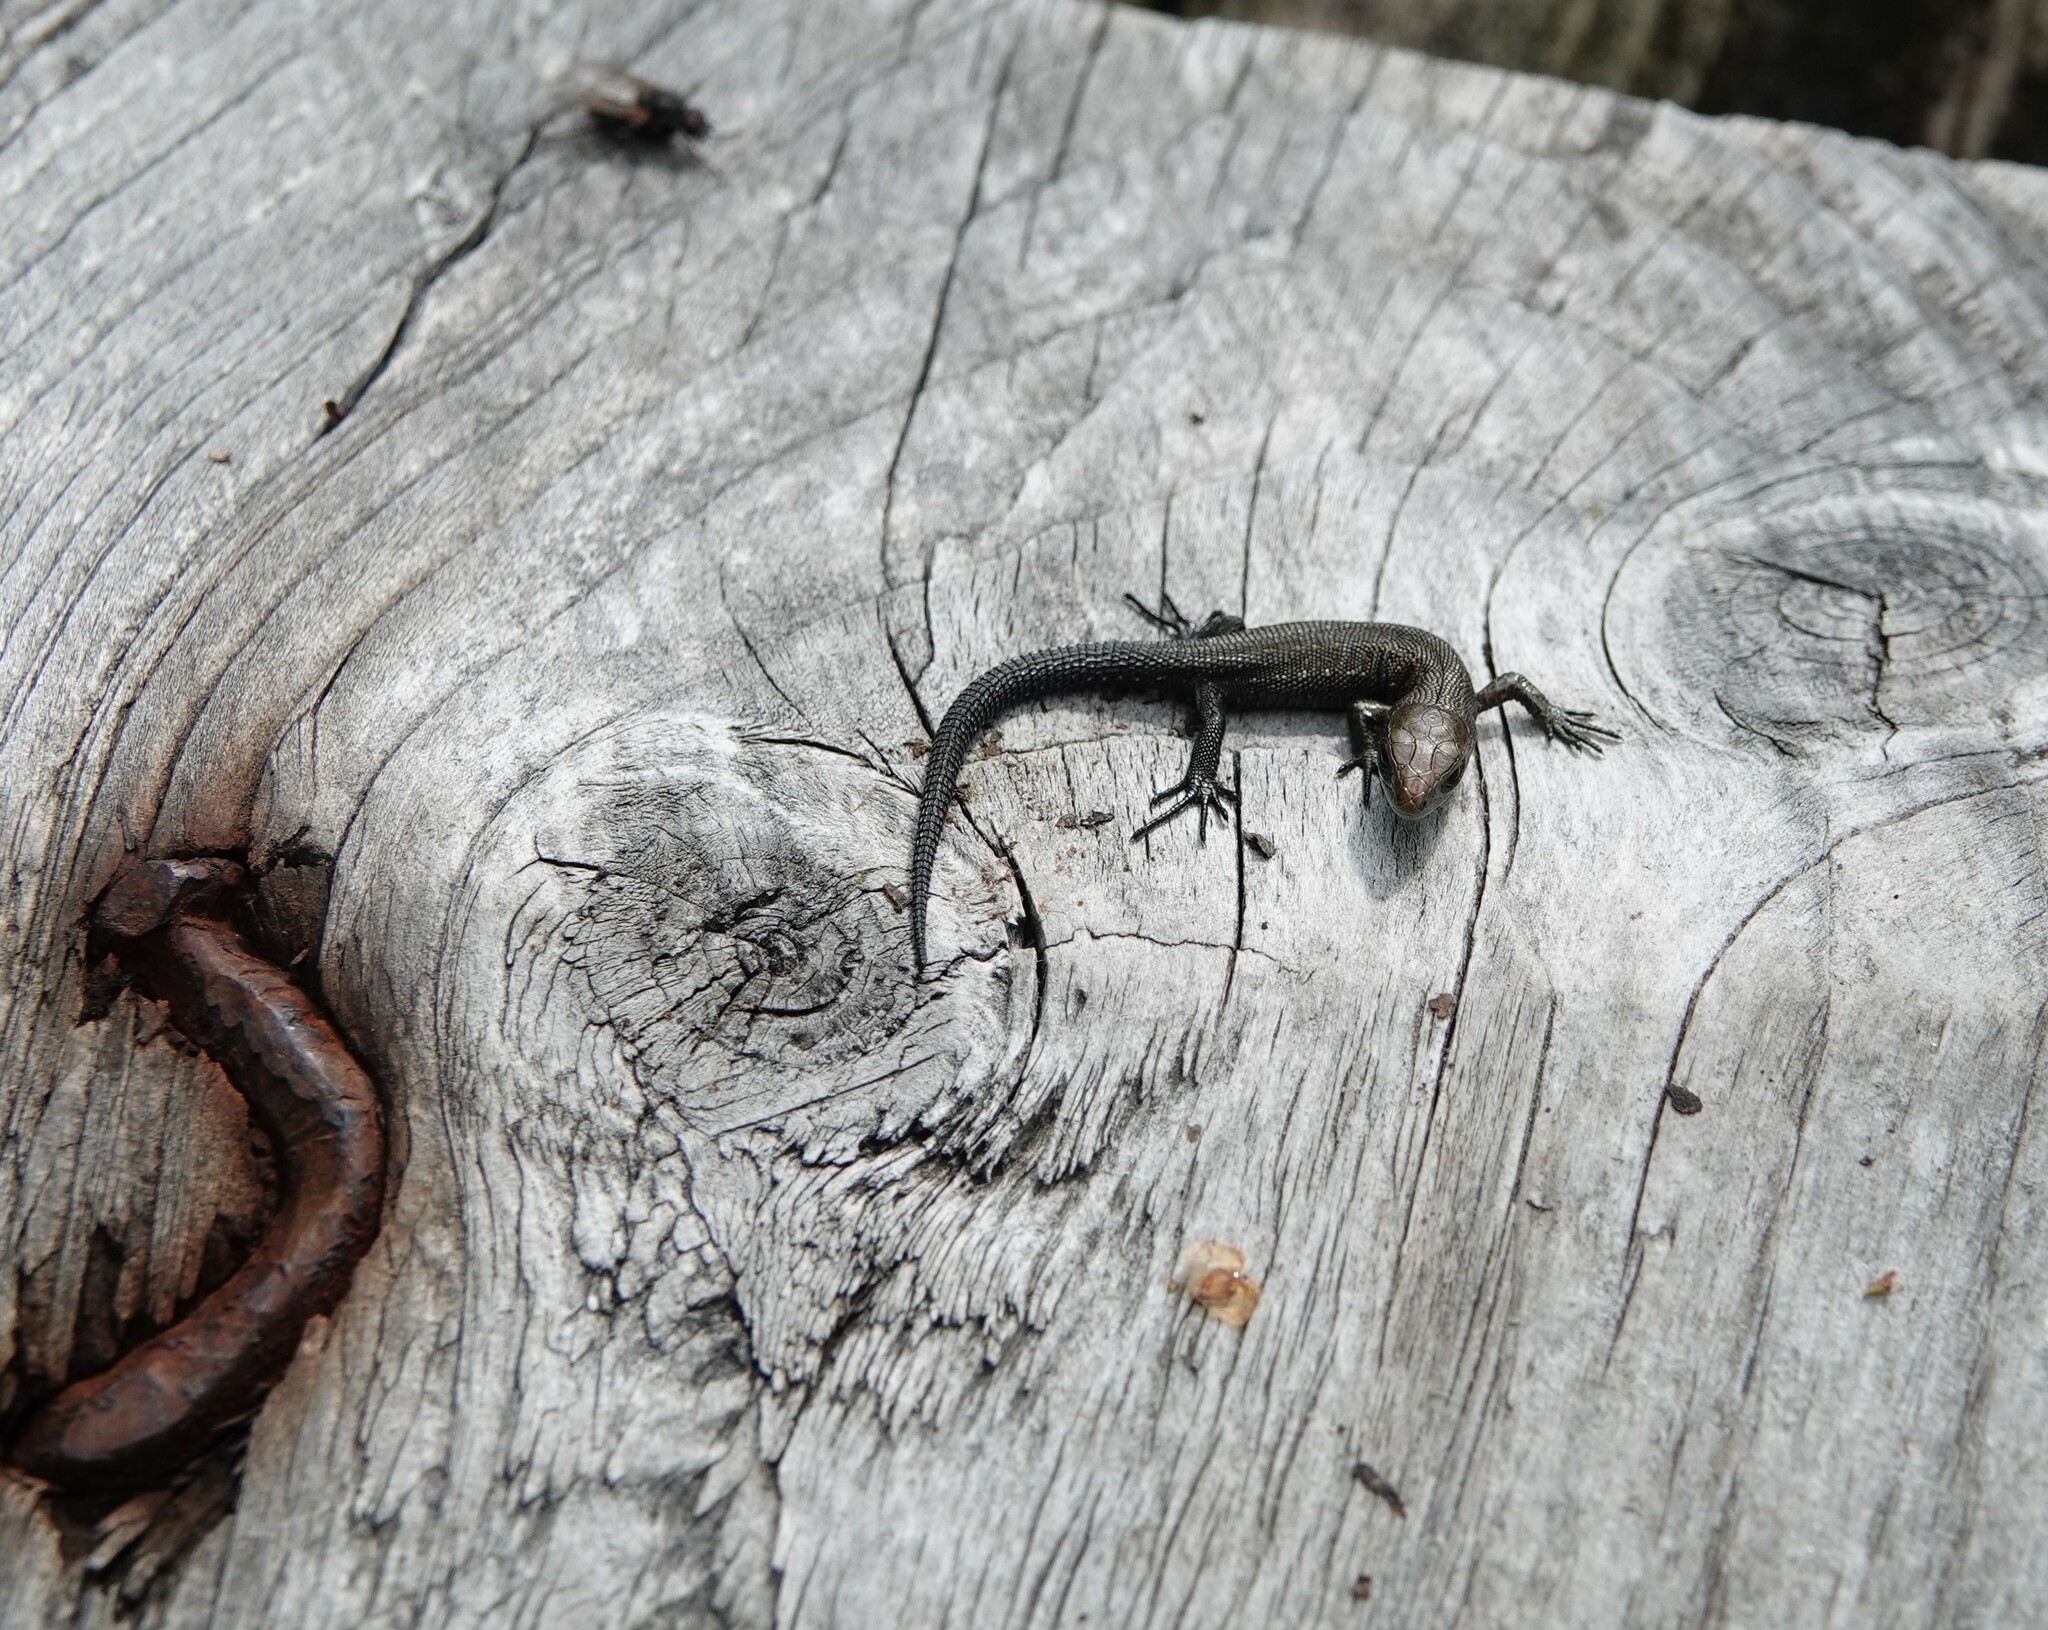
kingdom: Animalia
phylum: Chordata
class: Squamata
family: Lacertidae
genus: Zootoca
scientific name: Zootoca vivipara
